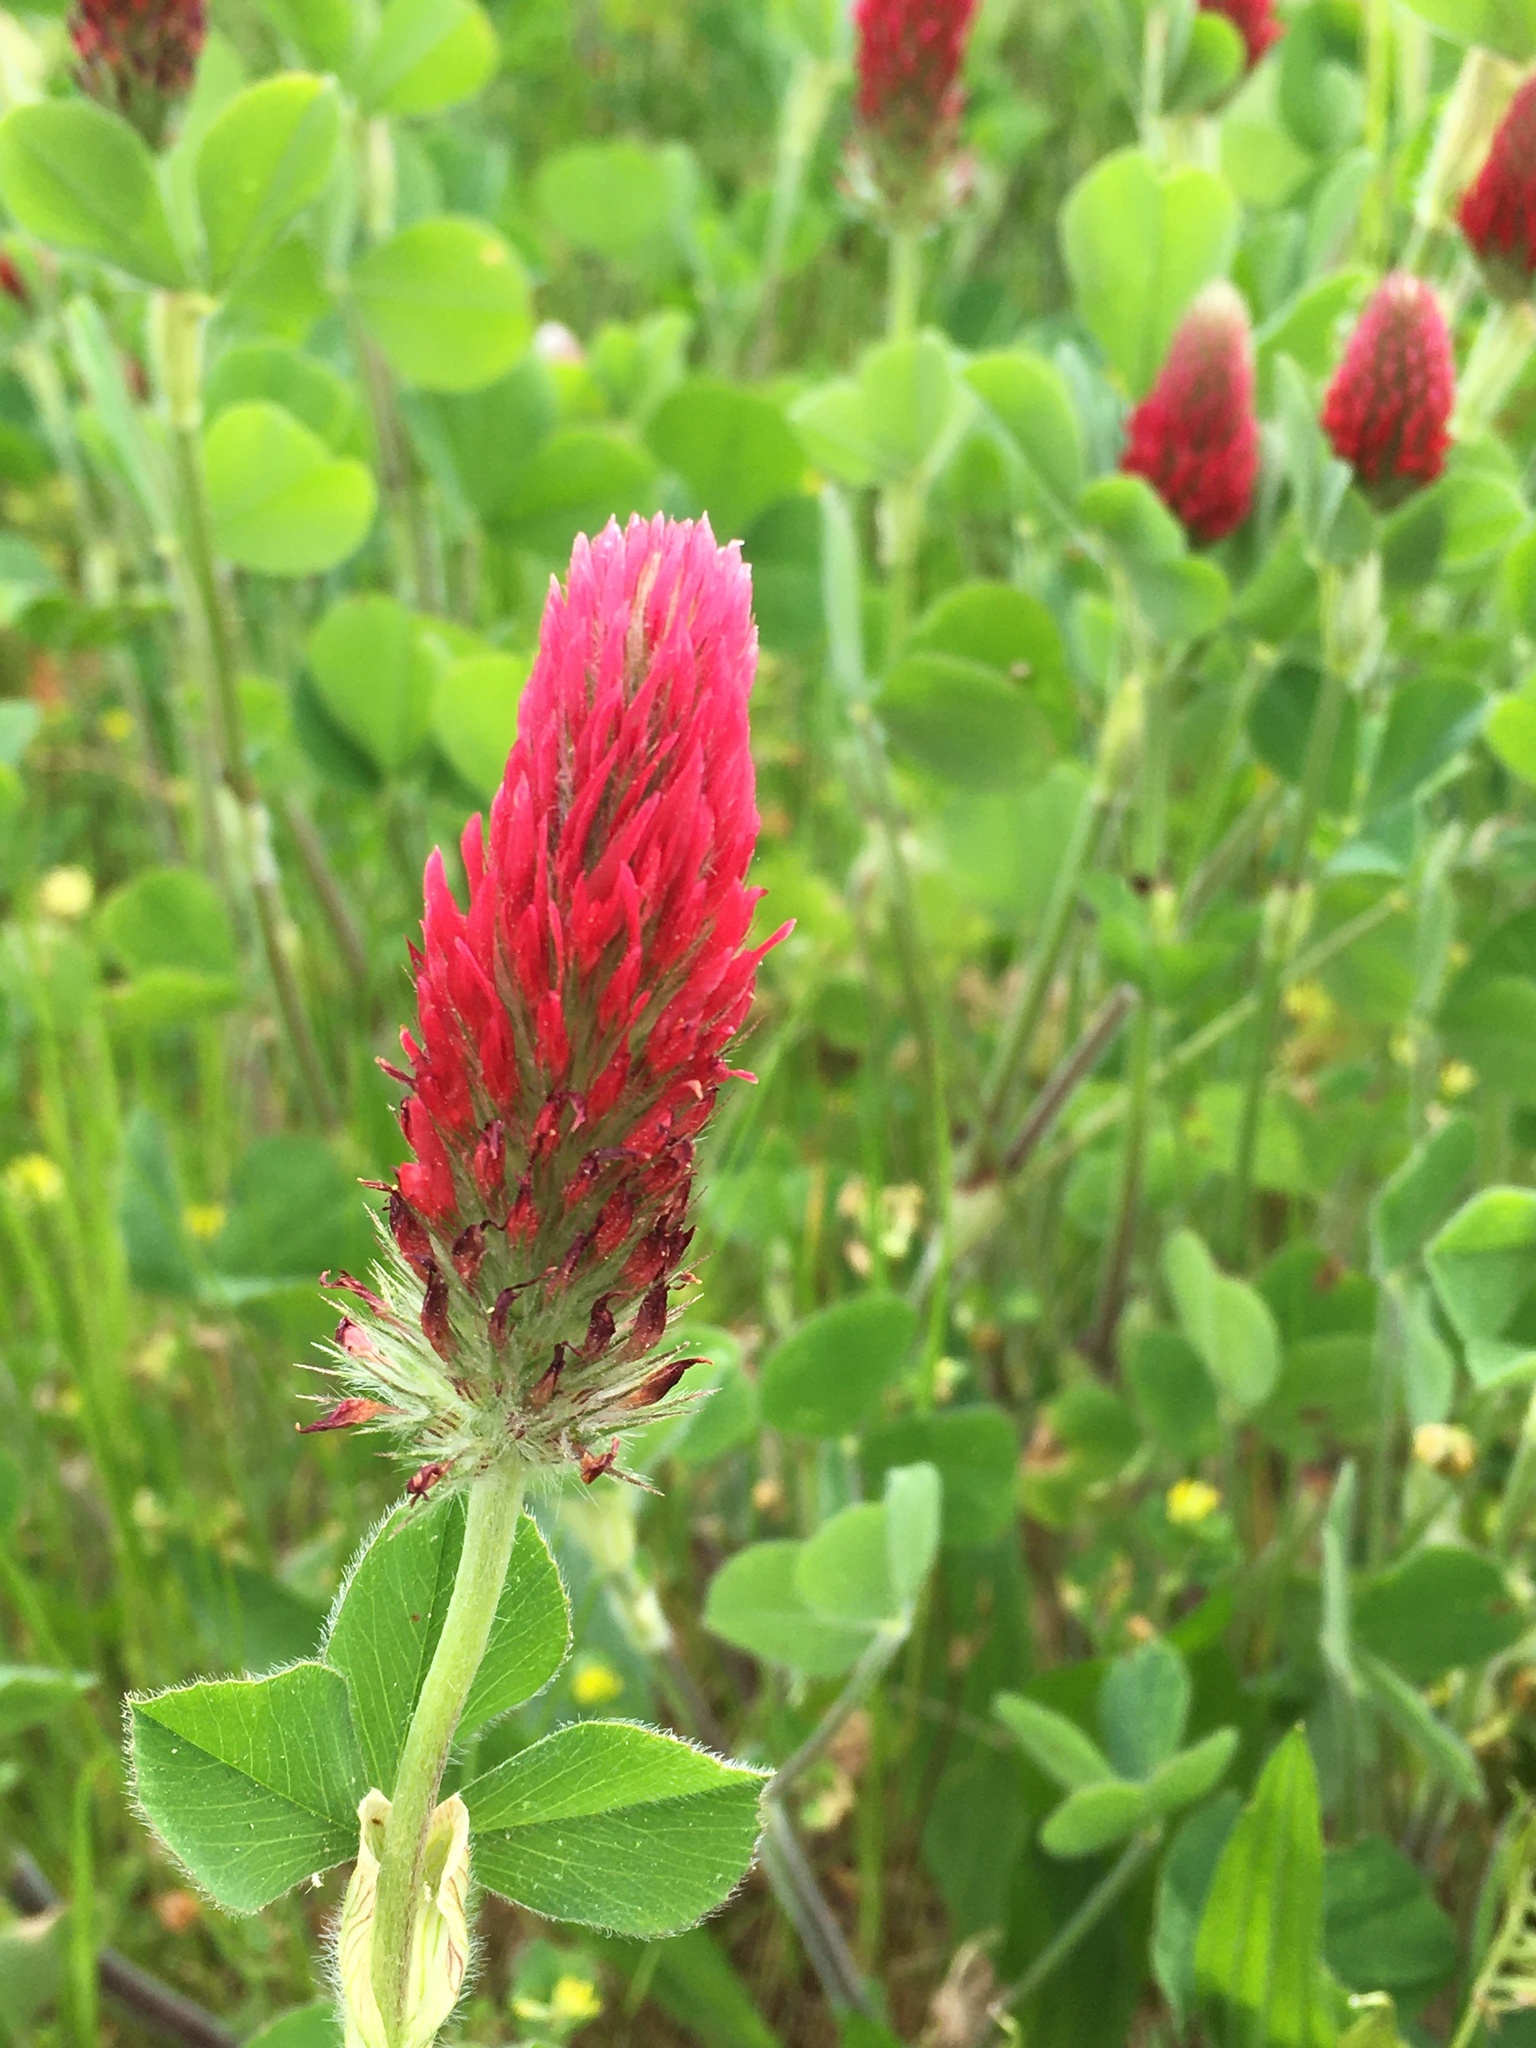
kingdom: Plantae
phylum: Tracheophyta
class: Magnoliopsida
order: Fabales
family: Fabaceae
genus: Trifolium
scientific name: Trifolium incarnatum
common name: Crimson clover
